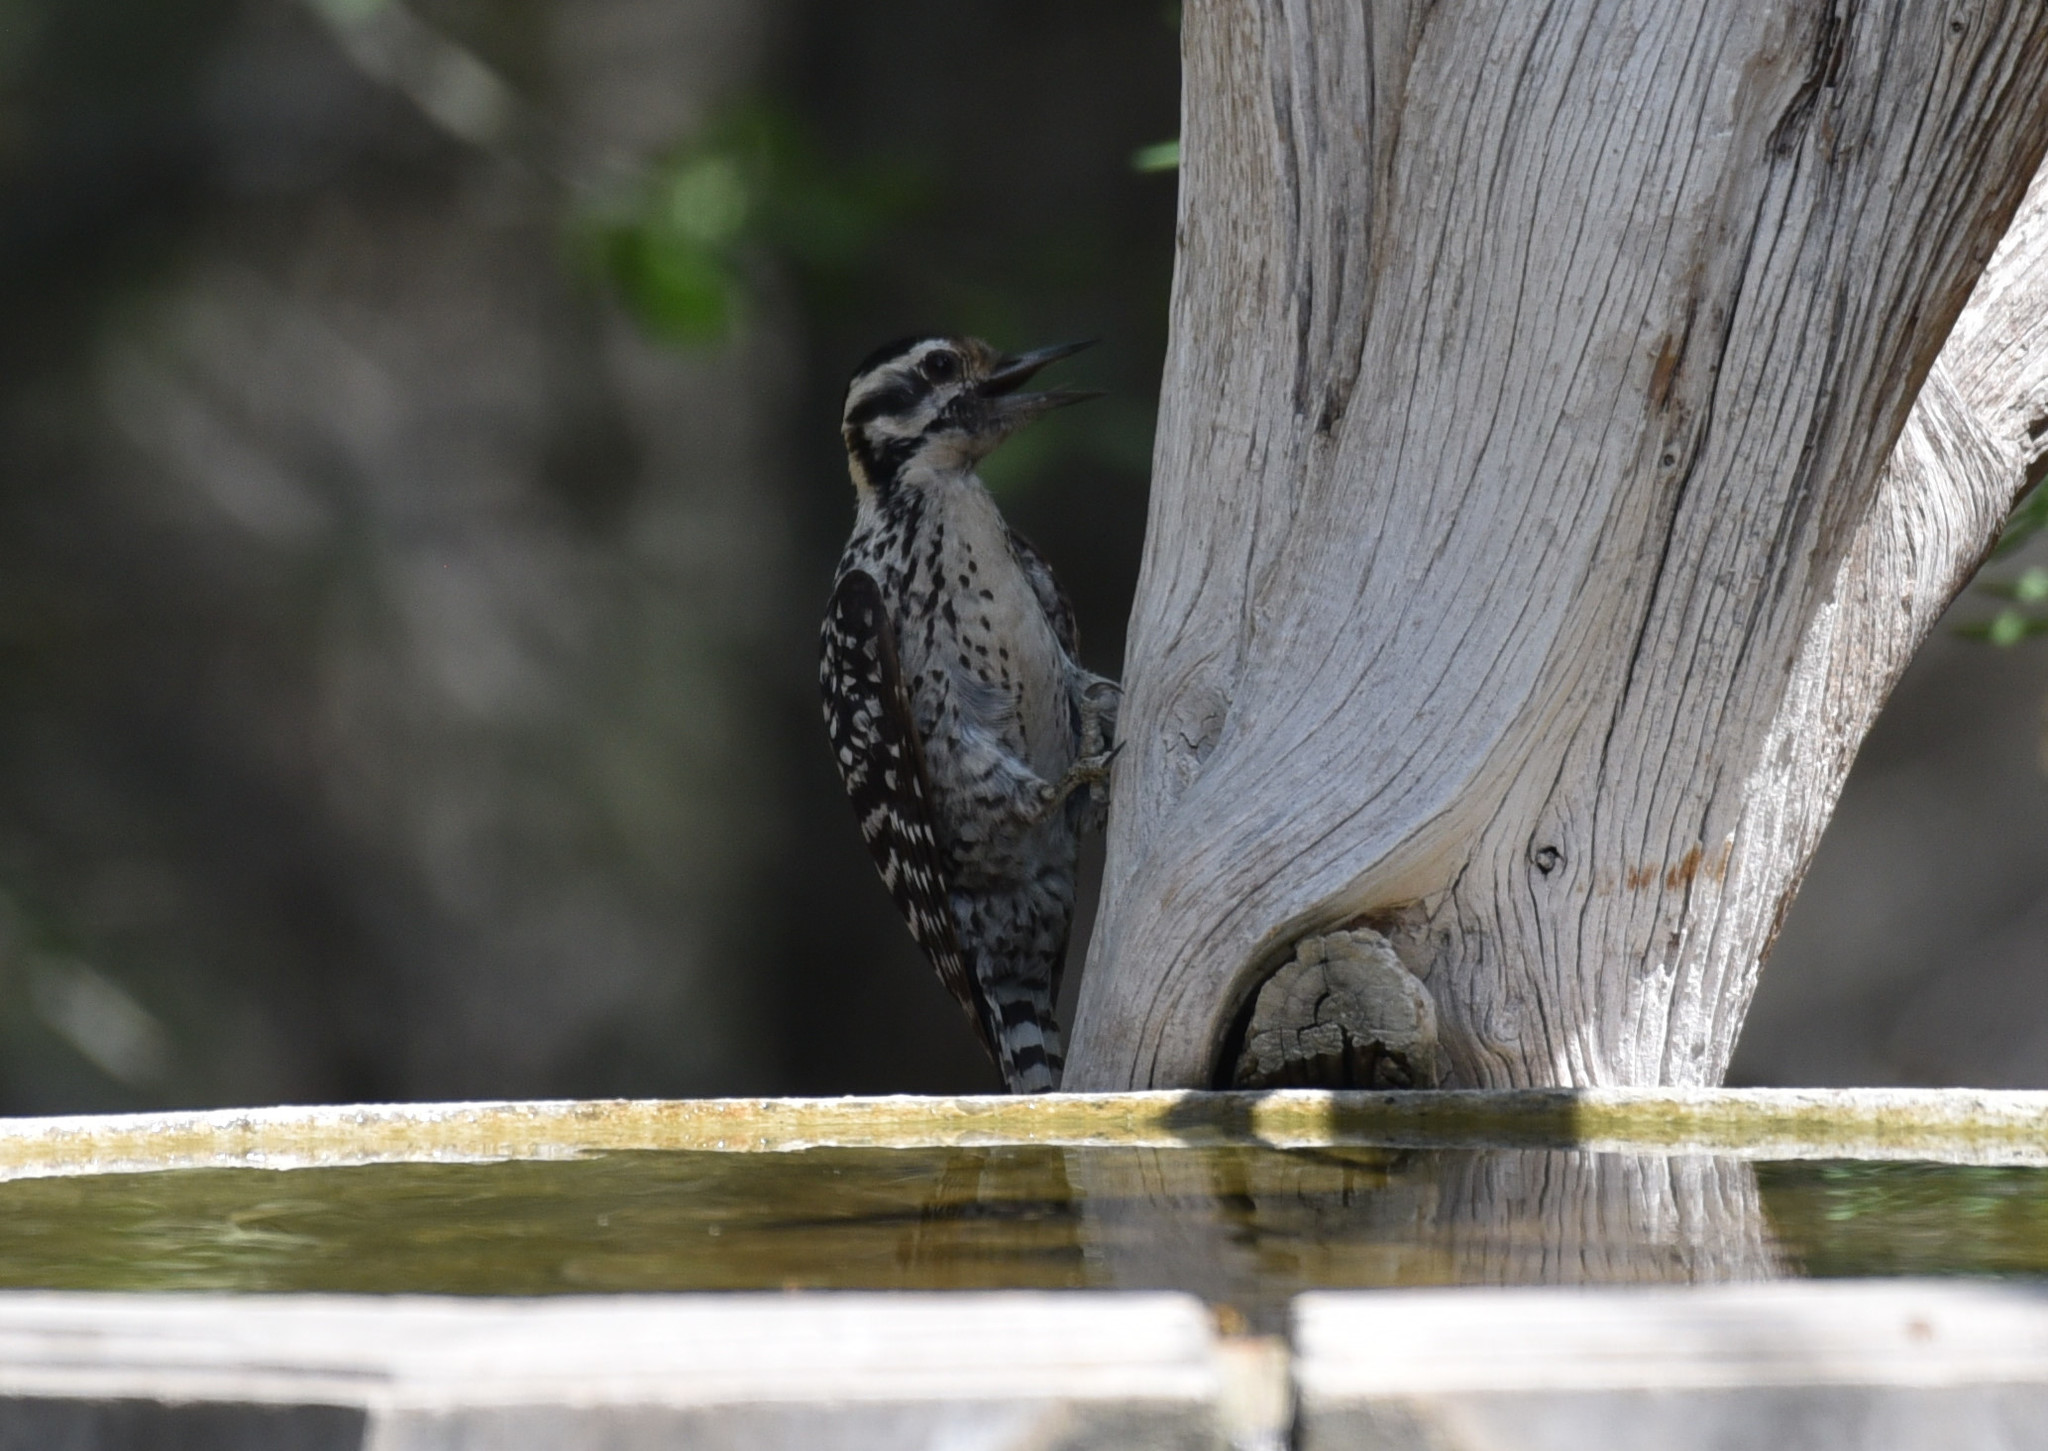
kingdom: Animalia
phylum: Chordata
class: Aves
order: Piciformes
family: Picidae
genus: Dryobates
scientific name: Dryobates scalaris
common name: Ladder-backed woodpecker
